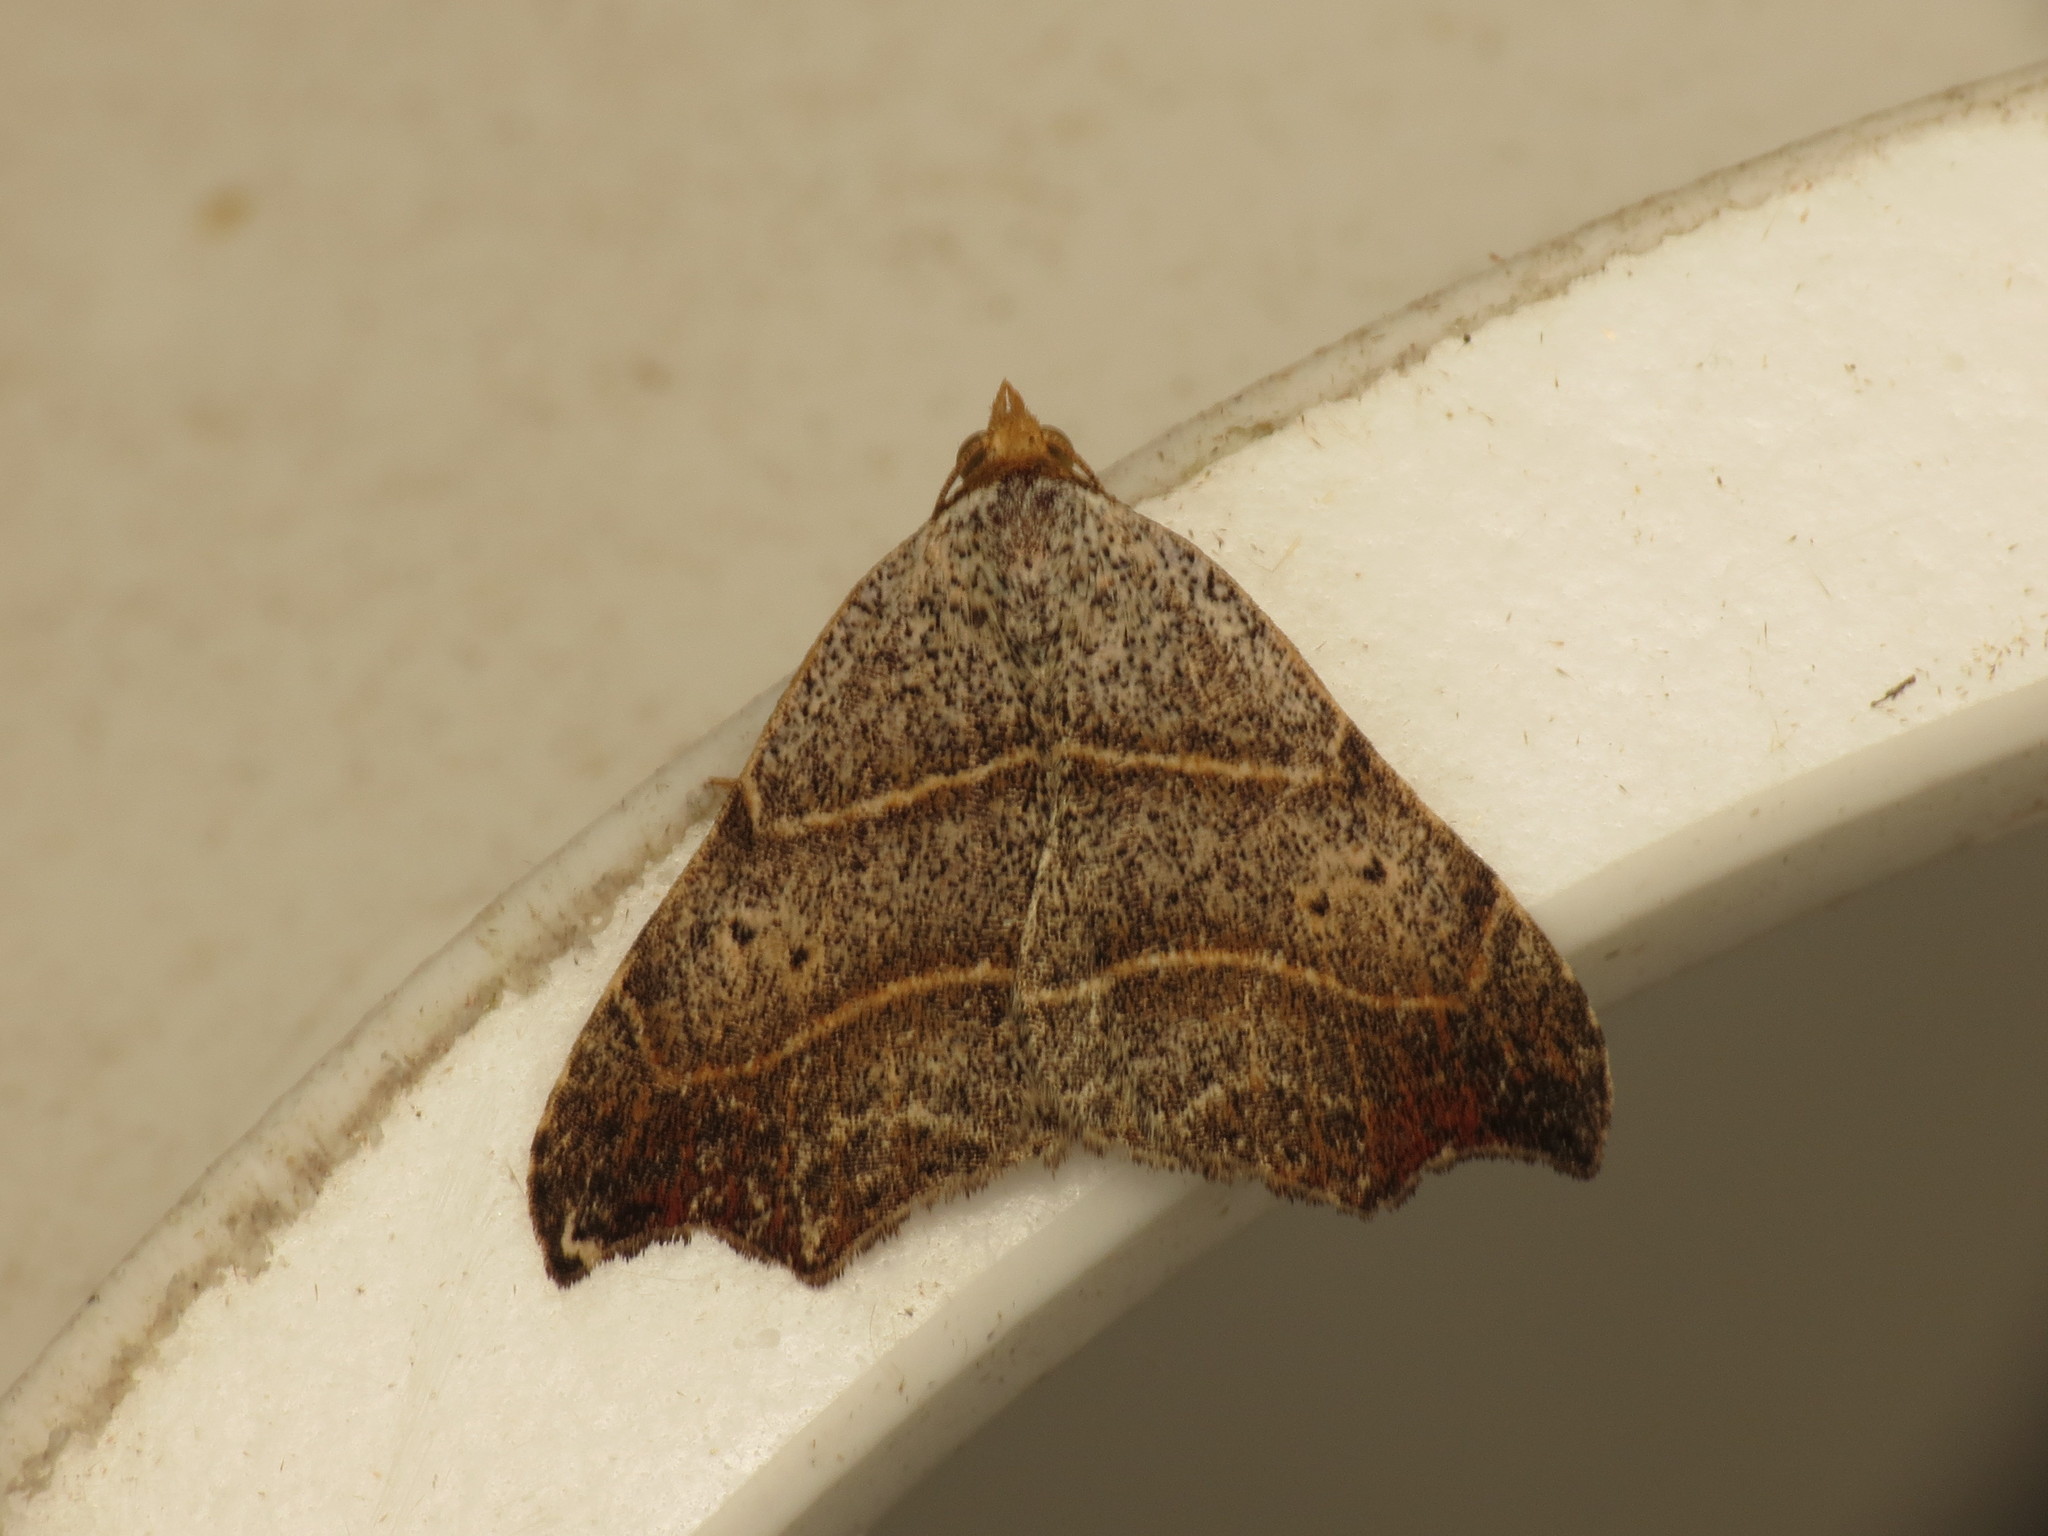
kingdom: Animalia
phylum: Arthropoda
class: Insecta
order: Lepidoptera
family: Erebidae
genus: Laspeyria
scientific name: Laspeyria flexula
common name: Beautiful hook-tip
